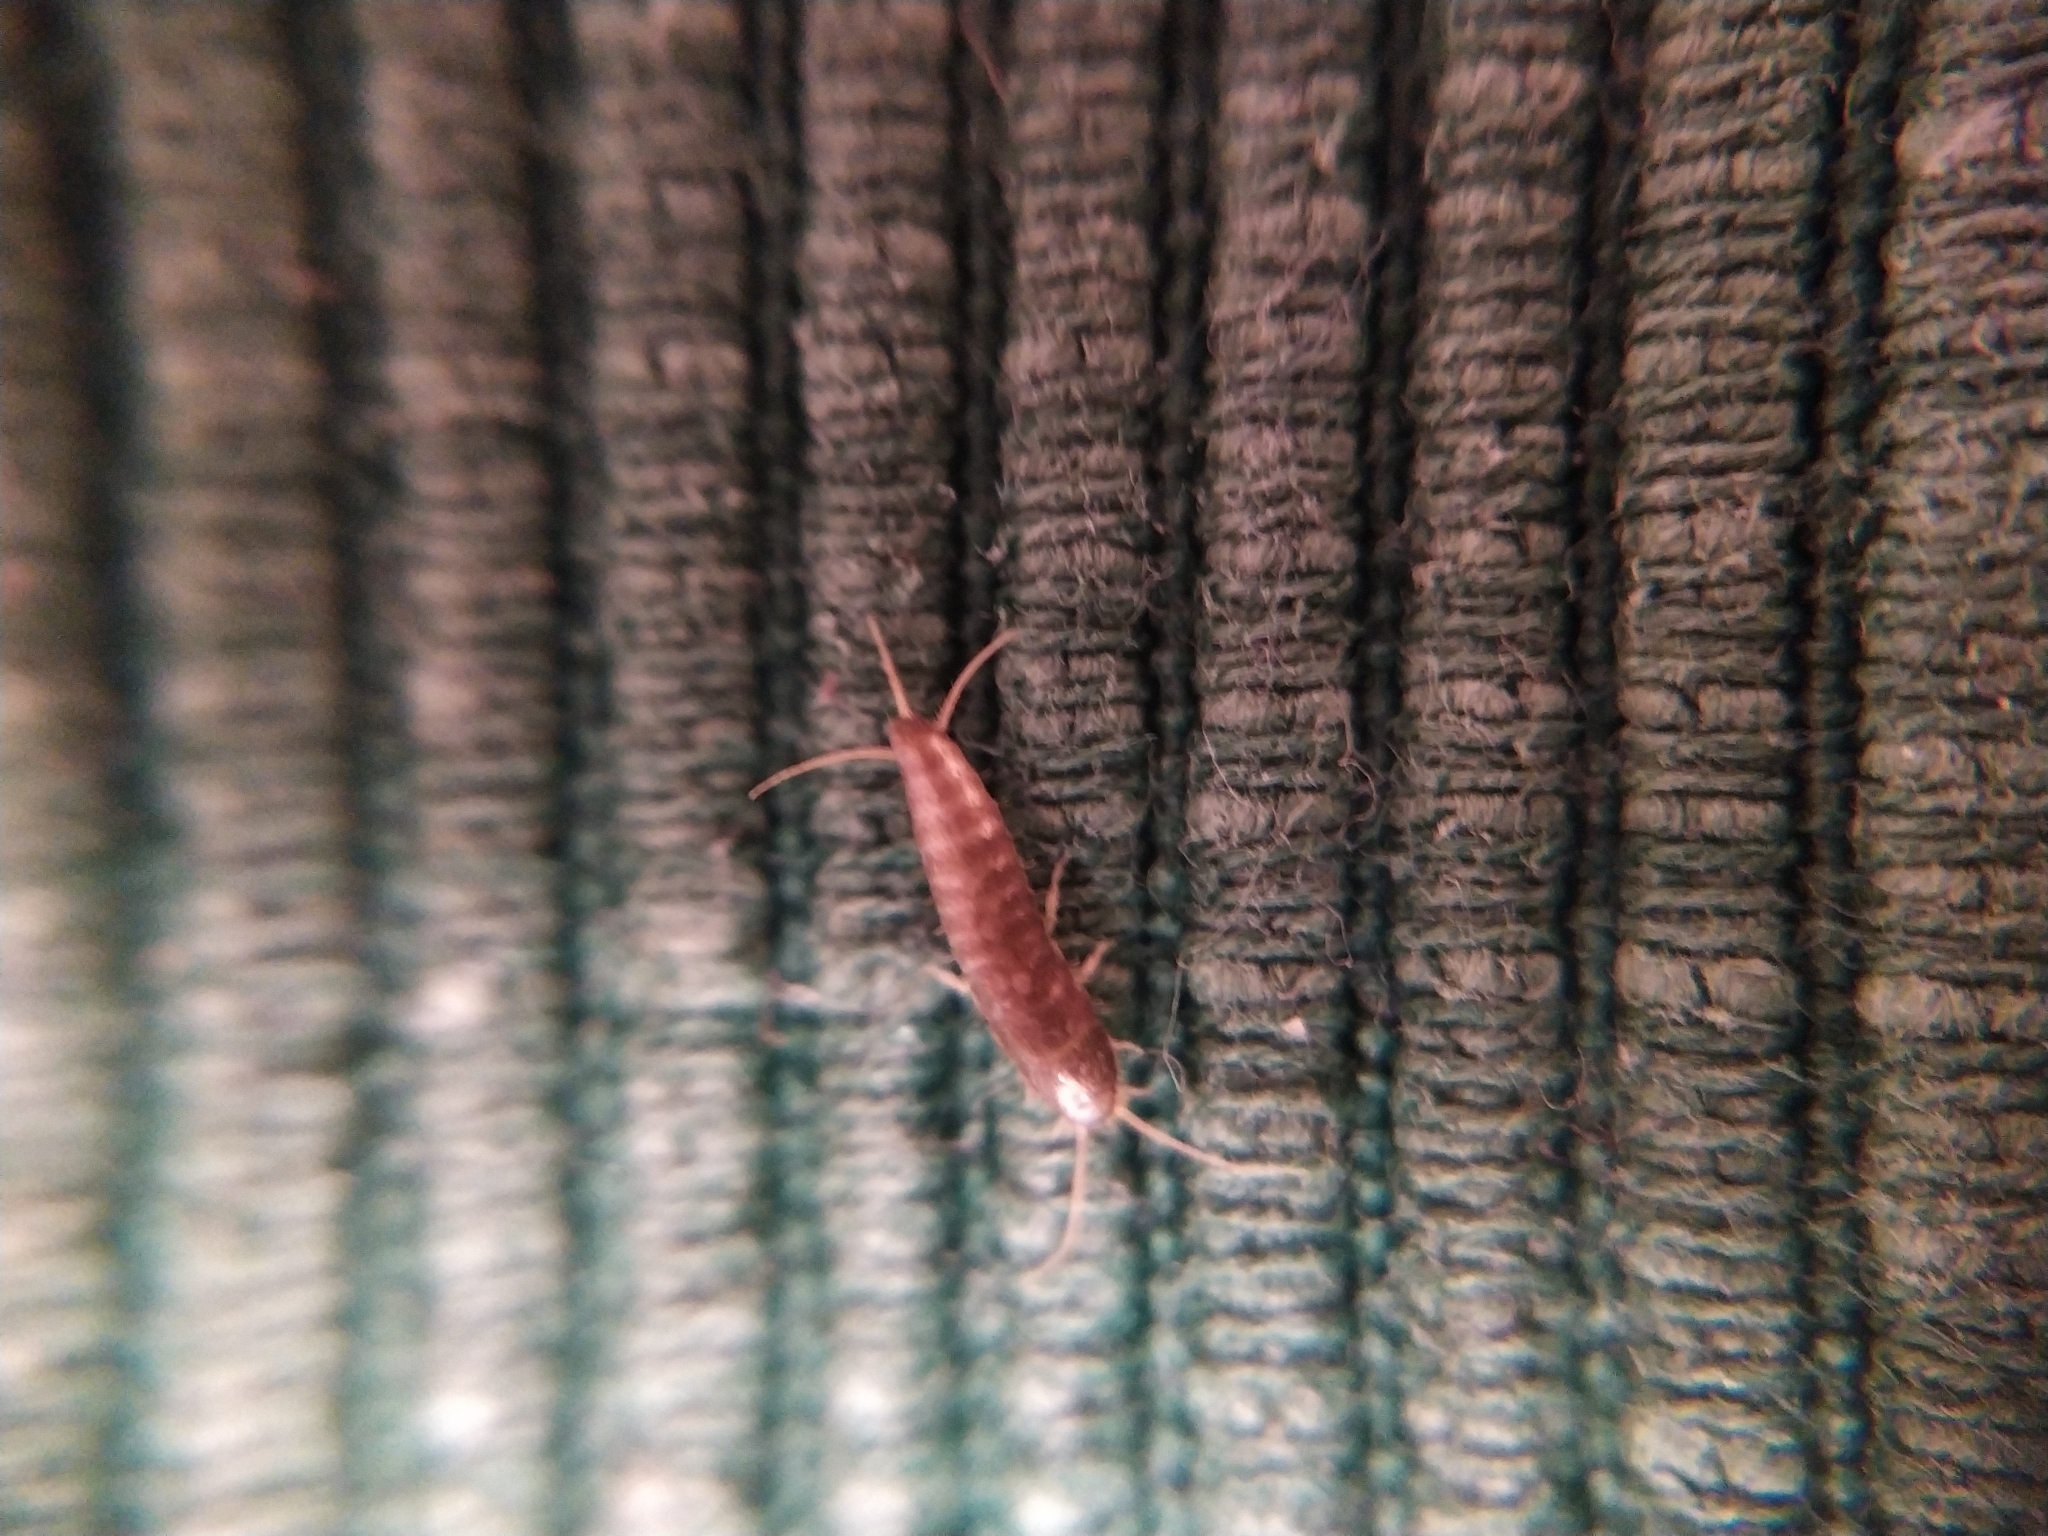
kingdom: Animalia
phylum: Arthropoda
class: Insecta
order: Zygentoma
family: Lepismatidae
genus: Lepisma
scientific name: Lepisma saccharinum
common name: Silverfish
